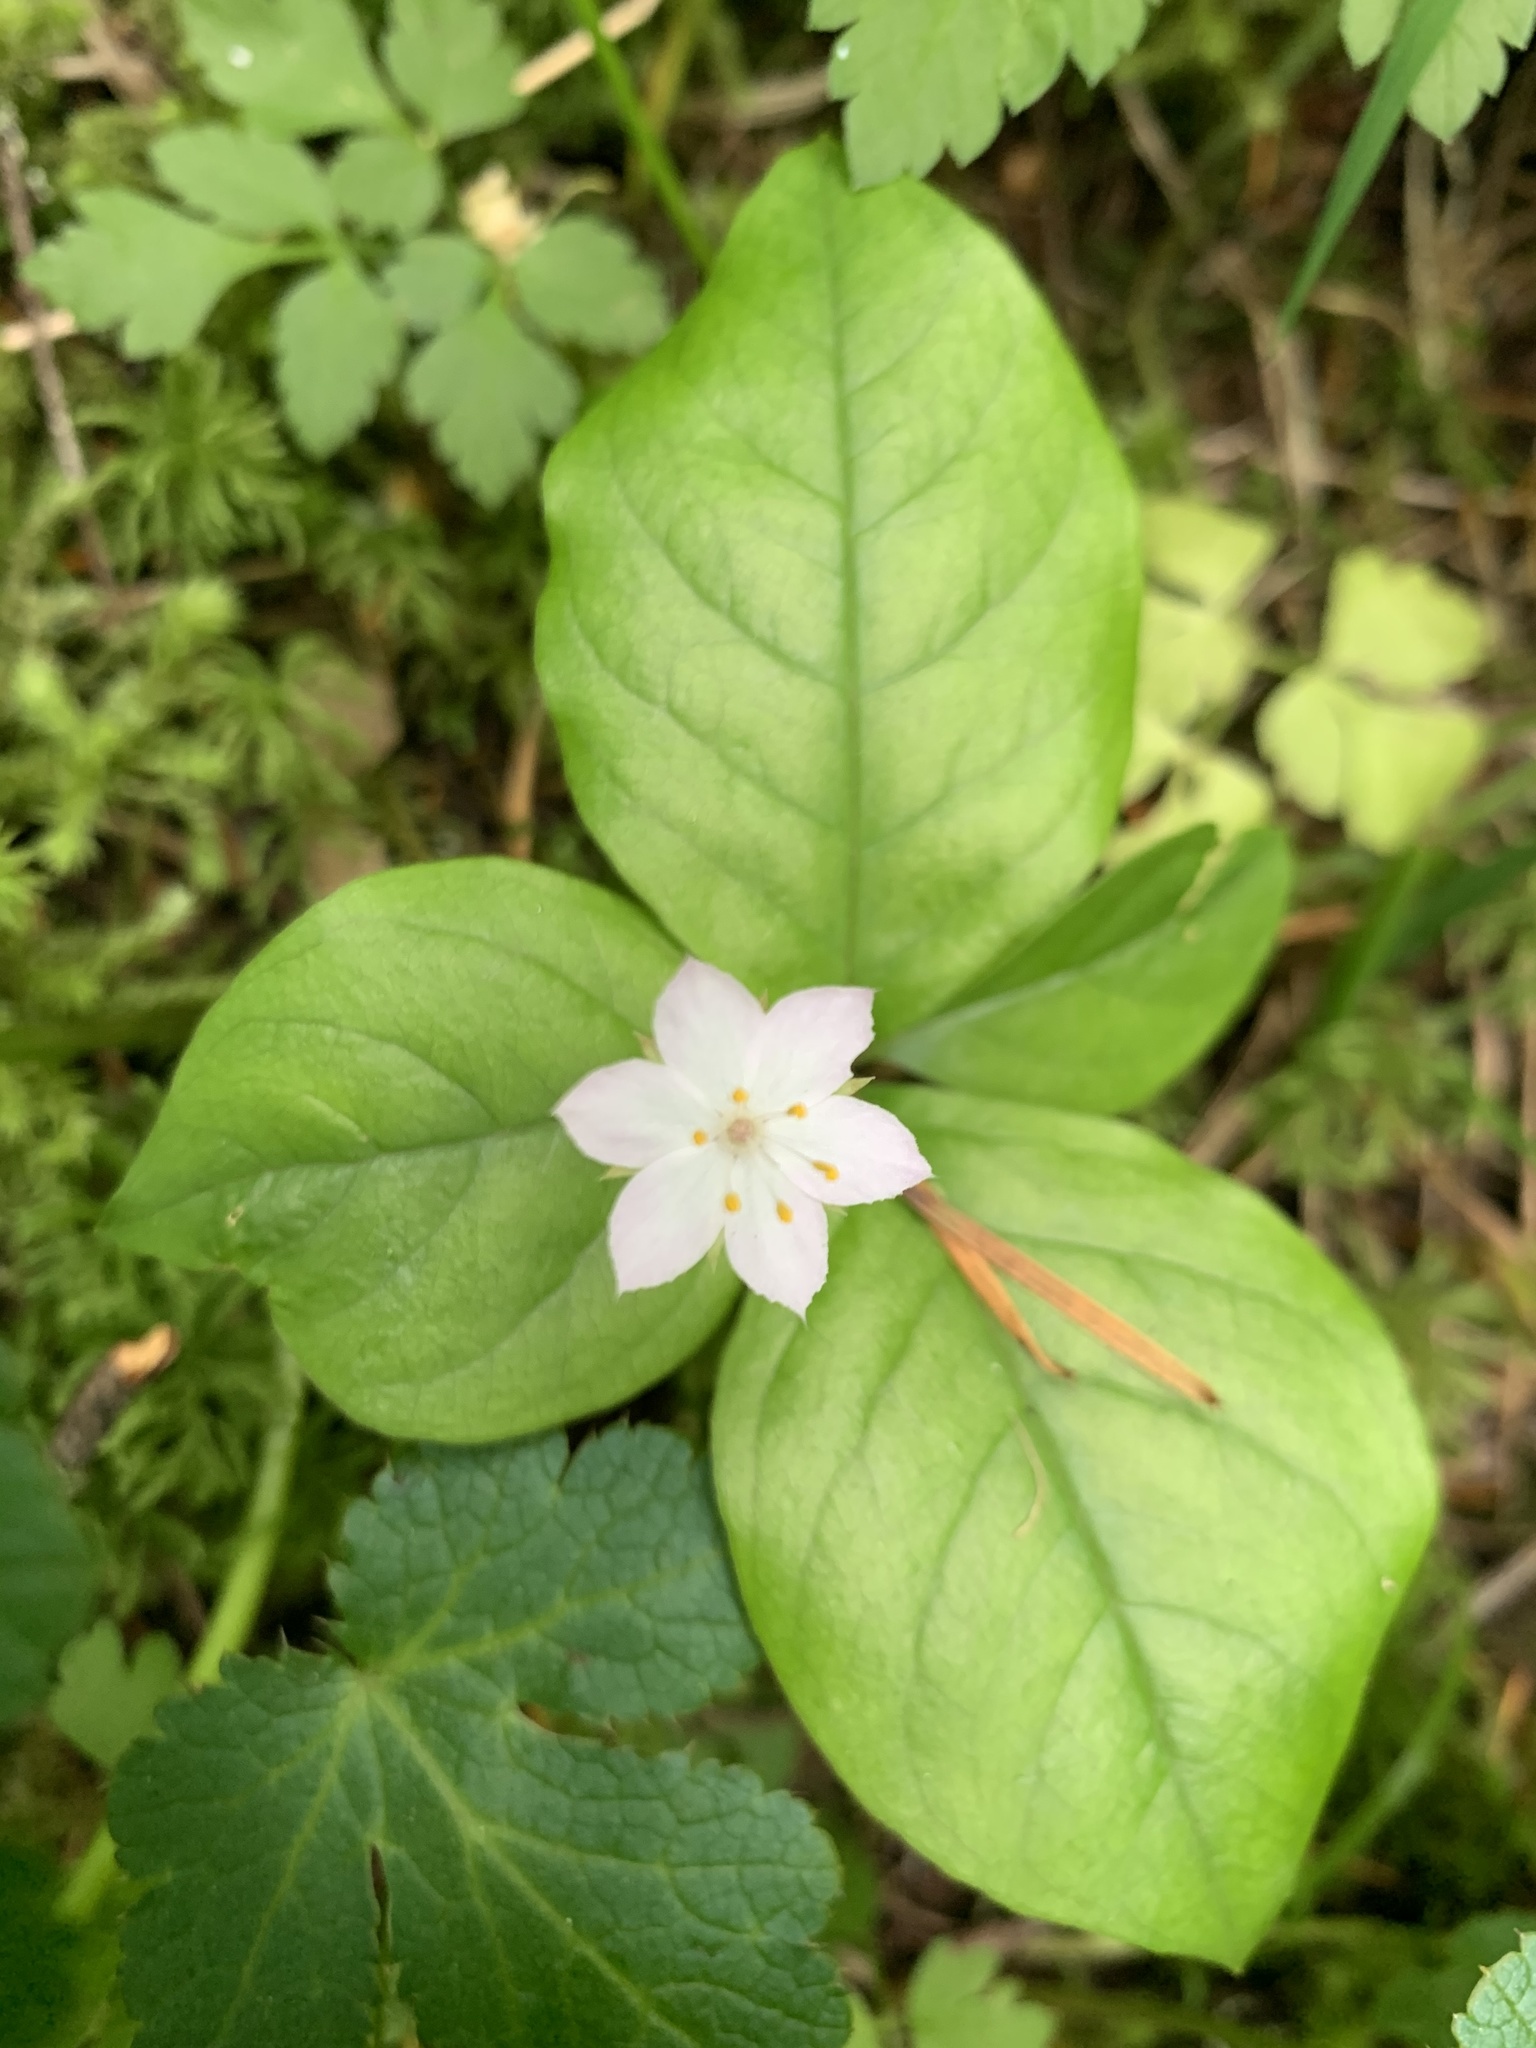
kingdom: Plantae
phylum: Tracheophyta
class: Magnoliopsida
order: Ericales
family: Primulaceae
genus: Lysimachia
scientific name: Lysimachia latifolia
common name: Pacific starflower
